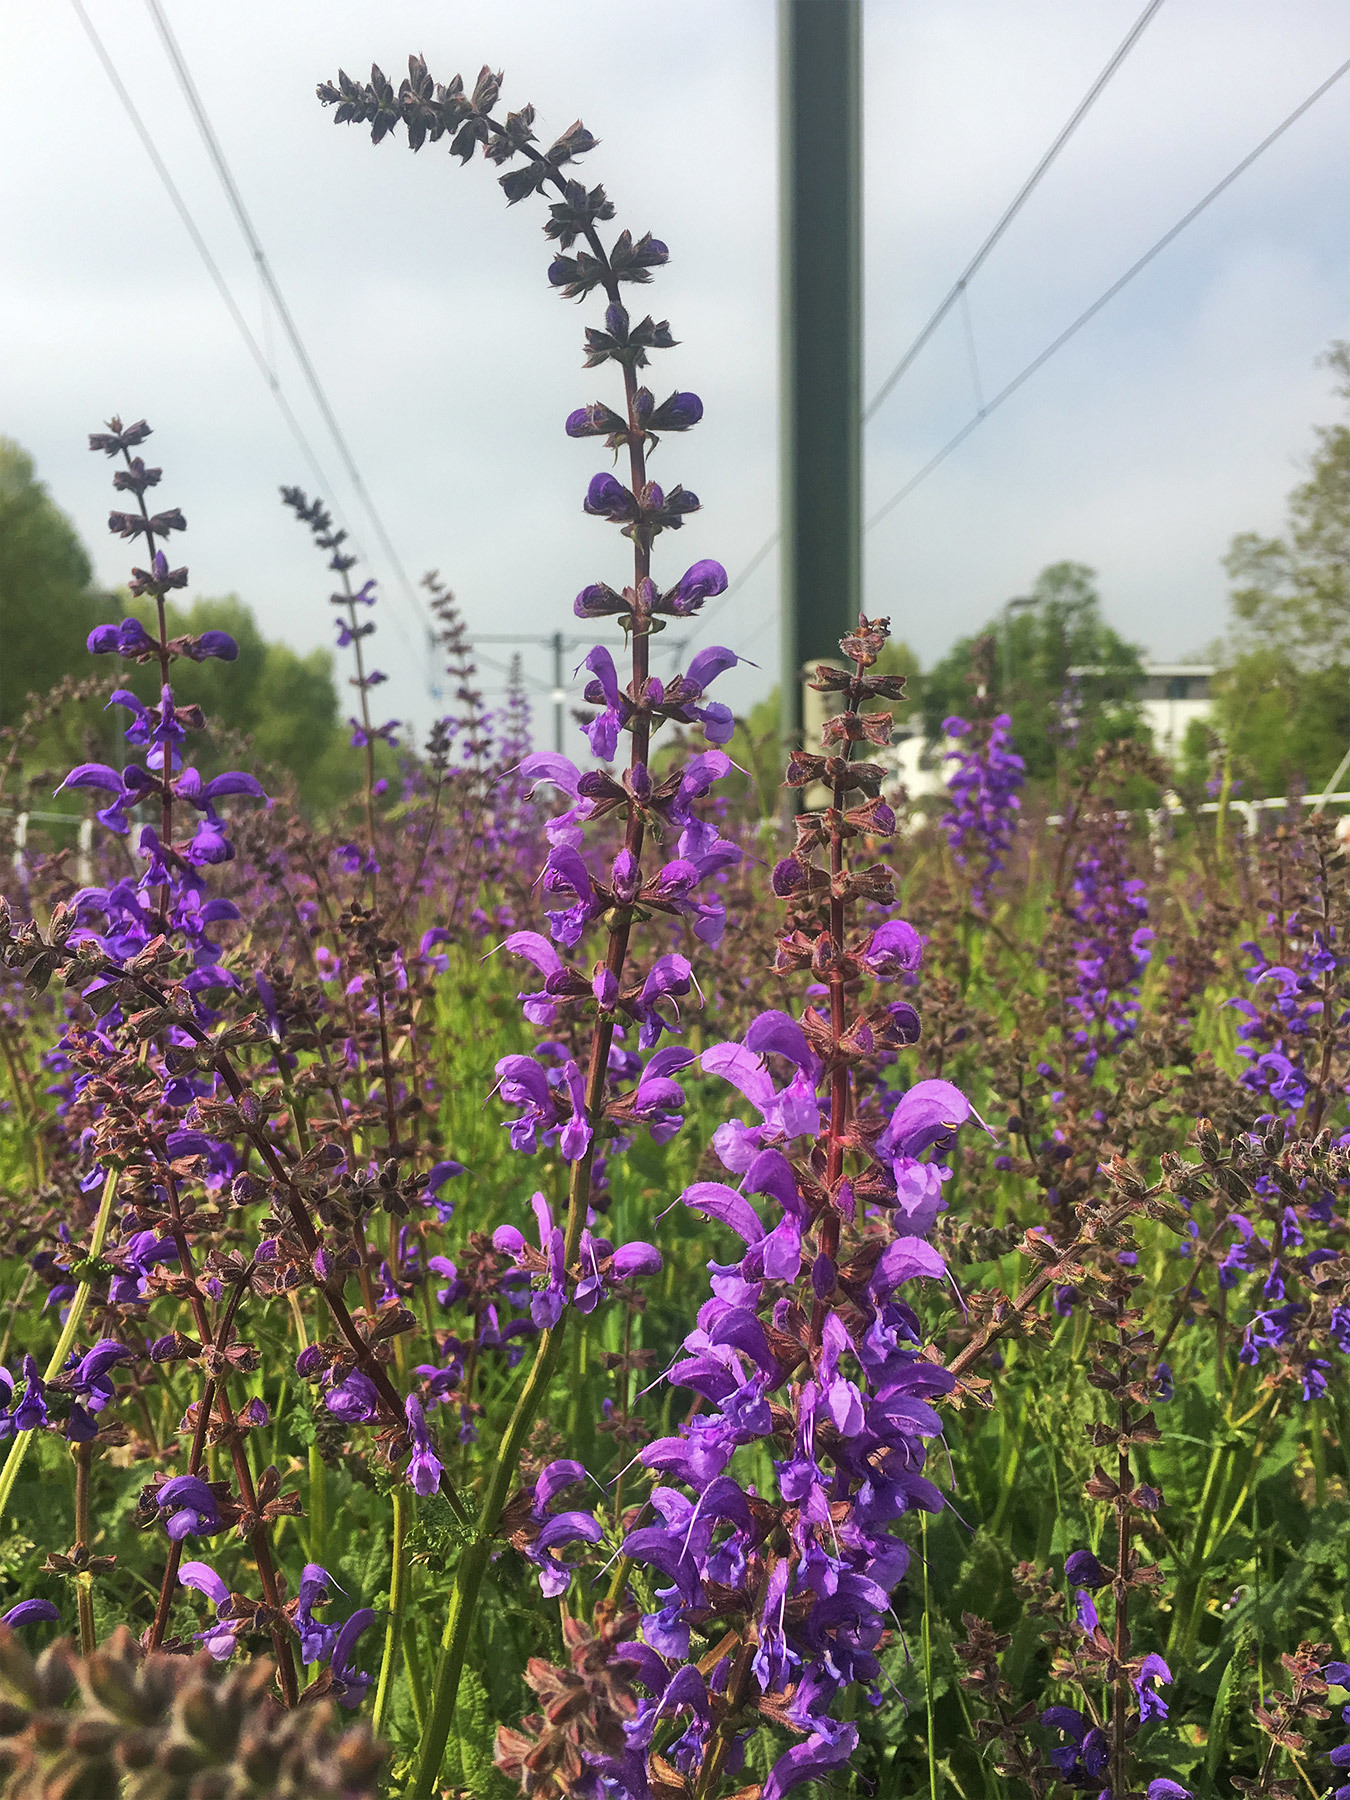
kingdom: Plantae
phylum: Tracheophyta
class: Magnoliopsida
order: Lamiales
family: Lamiaceae
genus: Salvia
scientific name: Salvia pratensis
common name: Meadow sage
